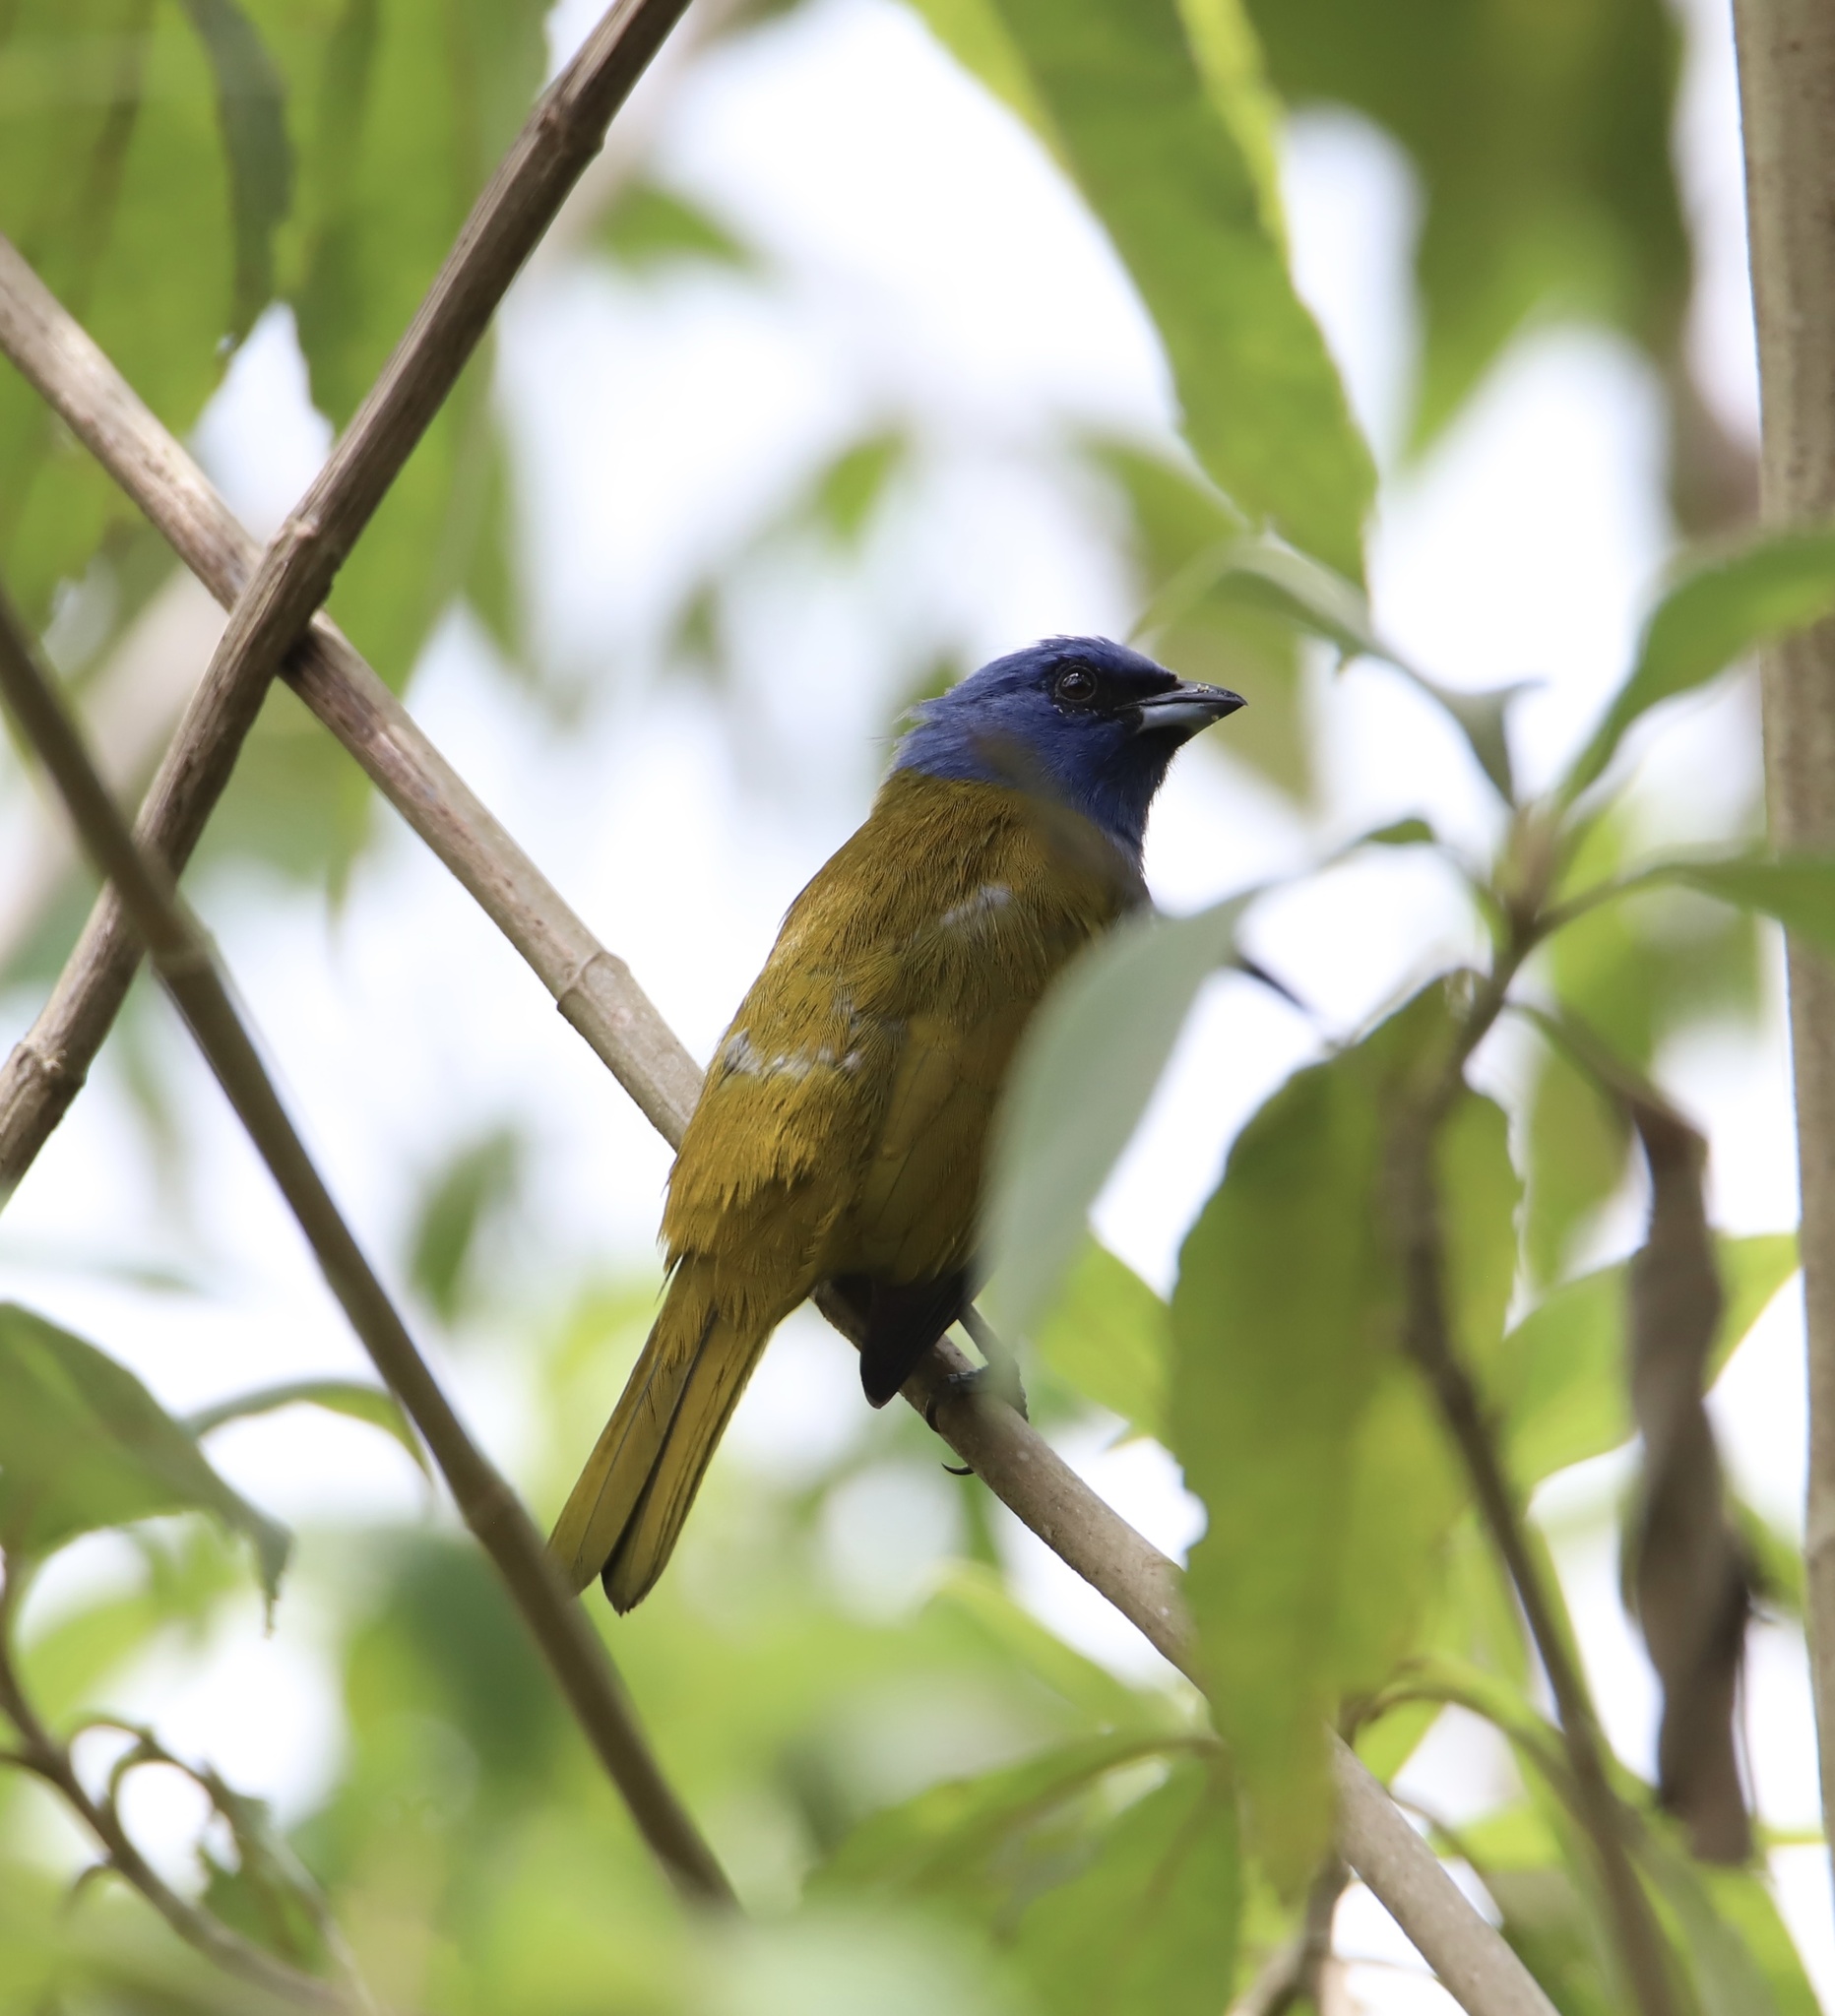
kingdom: Animalia
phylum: Chordata
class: Aves
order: Passeriformes
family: Thraupidae
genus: Sporathraupis
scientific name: Sporathraupis cyanocephala
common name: Blue-capped tanager
